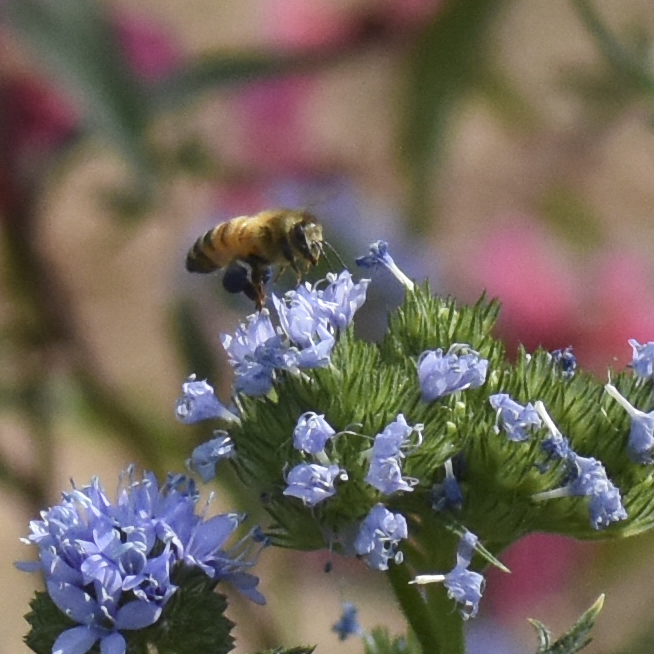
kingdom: Animalia
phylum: Arthropoda
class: Insecta
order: Hymenoptera
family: Apidae
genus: Apis
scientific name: Apis mellifera
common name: Honey bee
